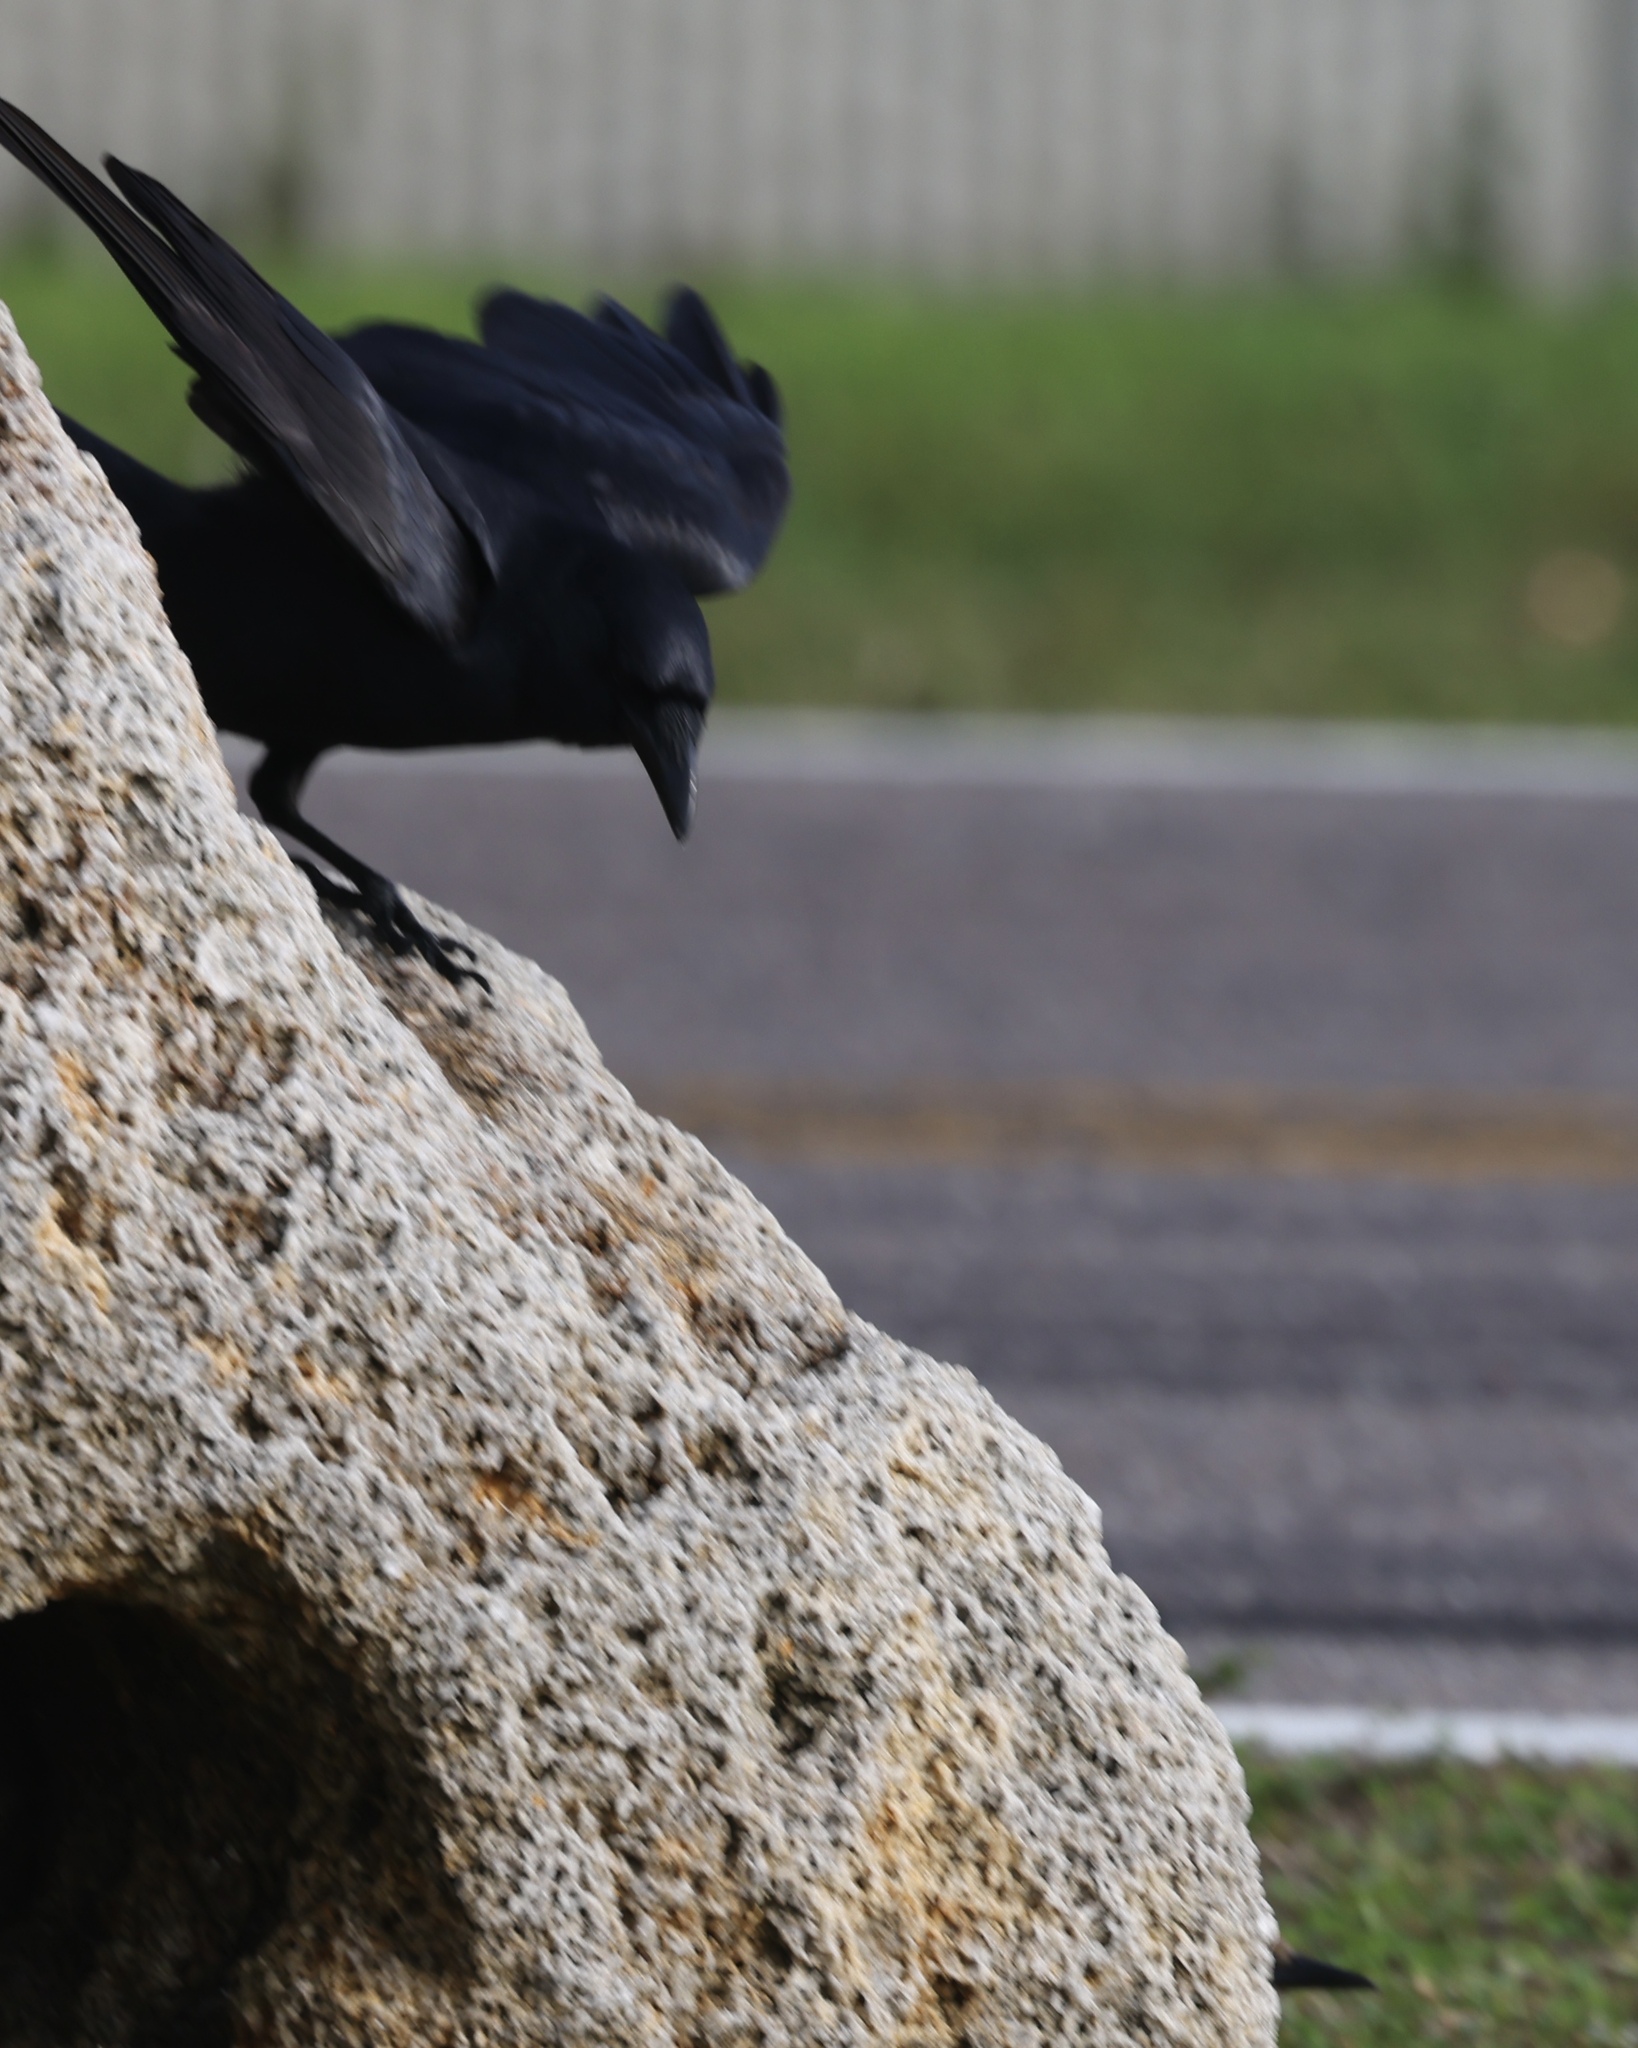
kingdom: Animalia
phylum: Chordata
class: Aves
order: Passeriformes
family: Corvidae
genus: Corvus
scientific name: Corvus
